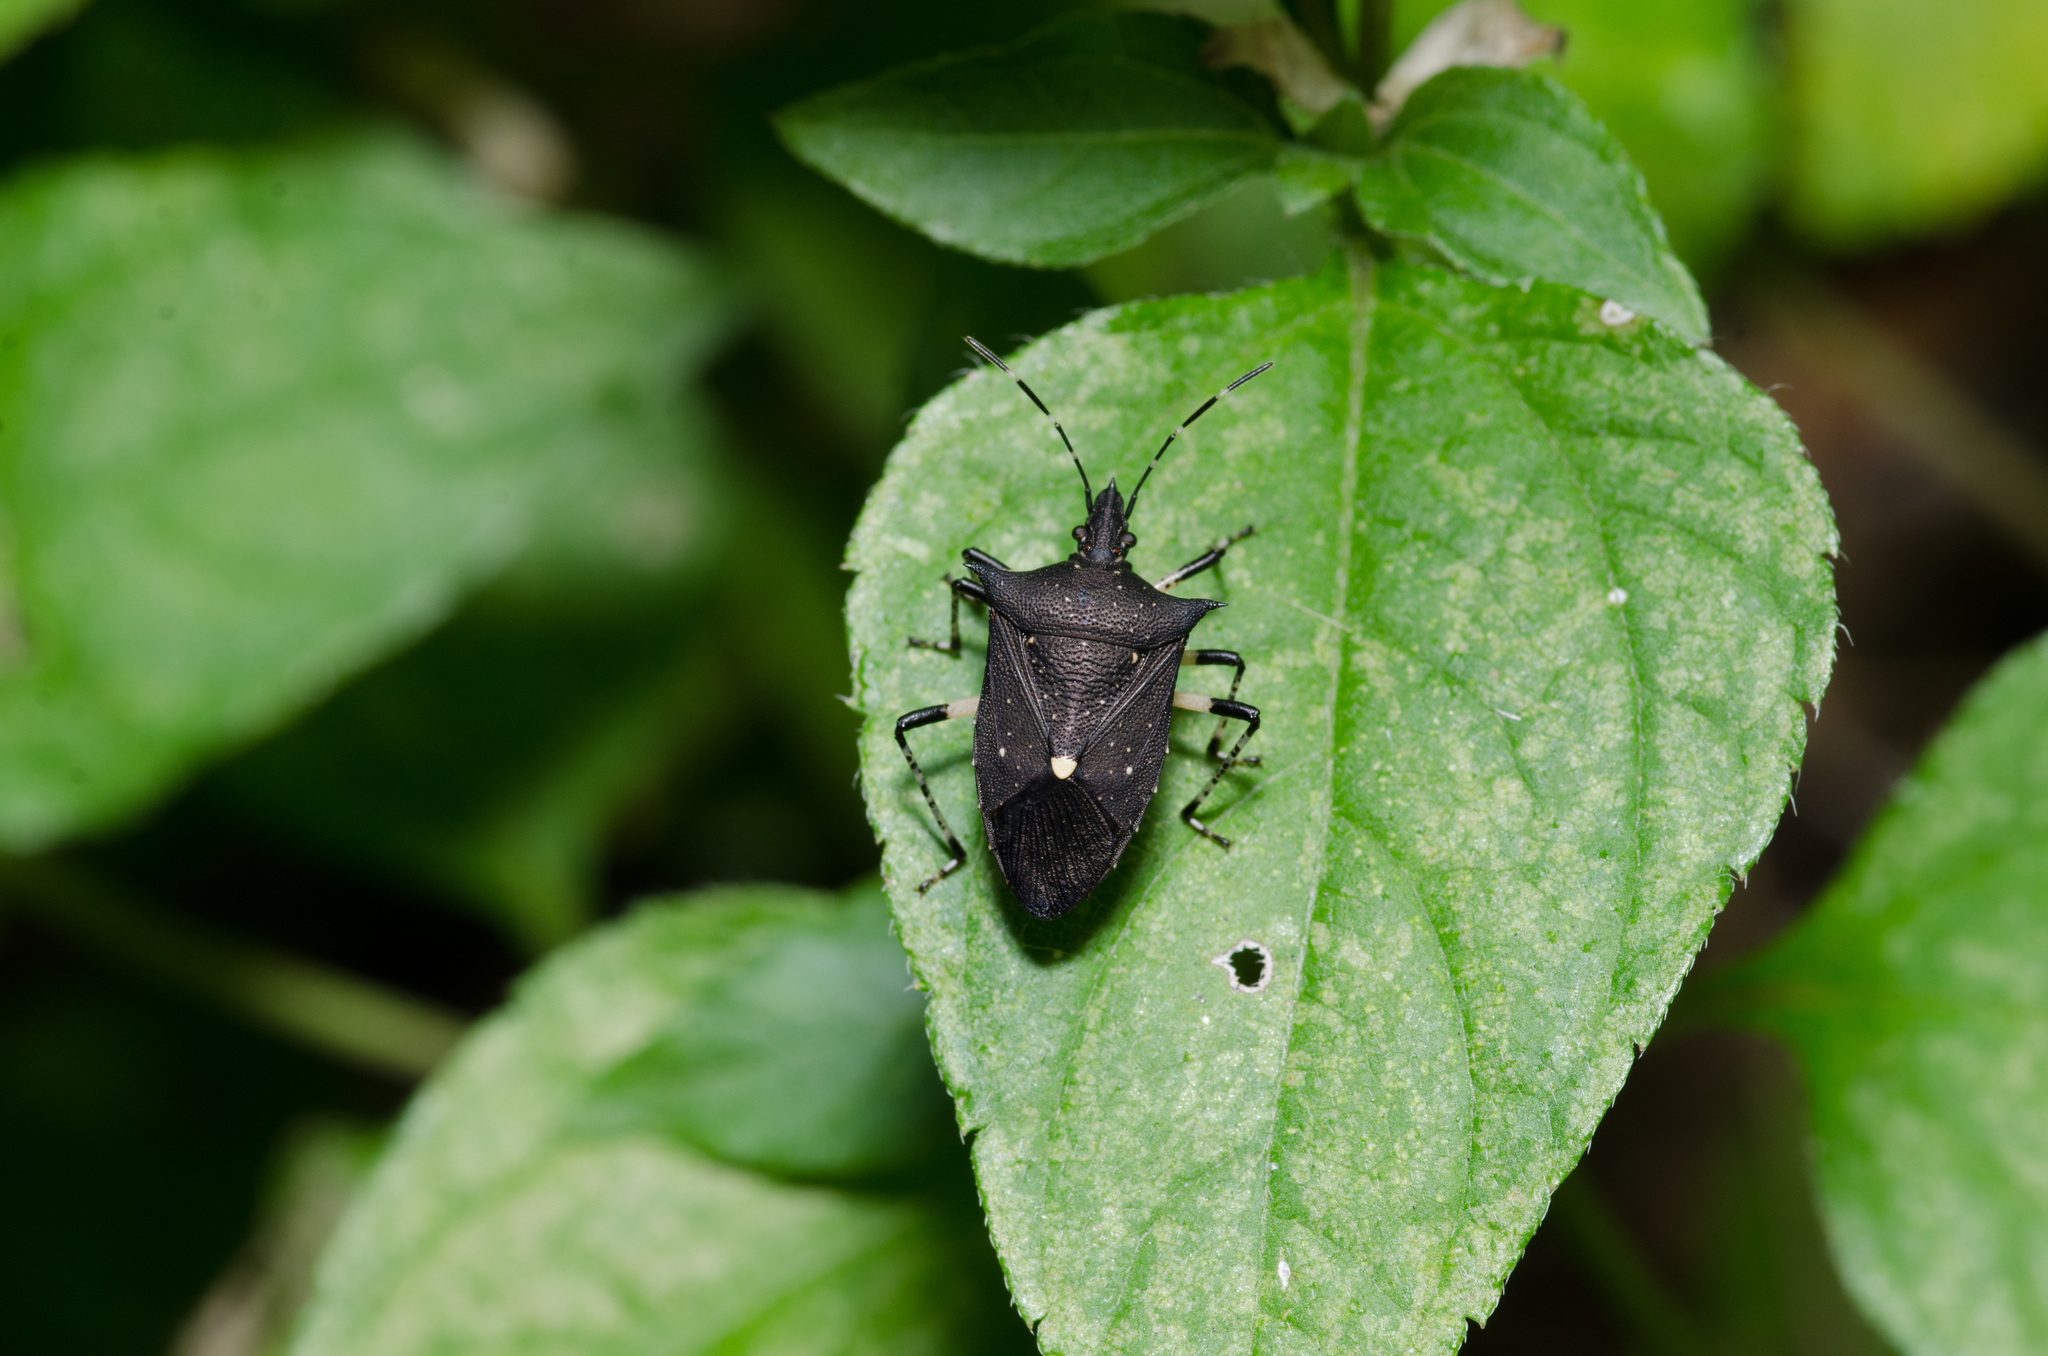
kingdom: Animalia
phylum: Arthropoda
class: Insecta
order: Hemiptera
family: Pentatomidae
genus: Proxys
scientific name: Proxys punctulatus
